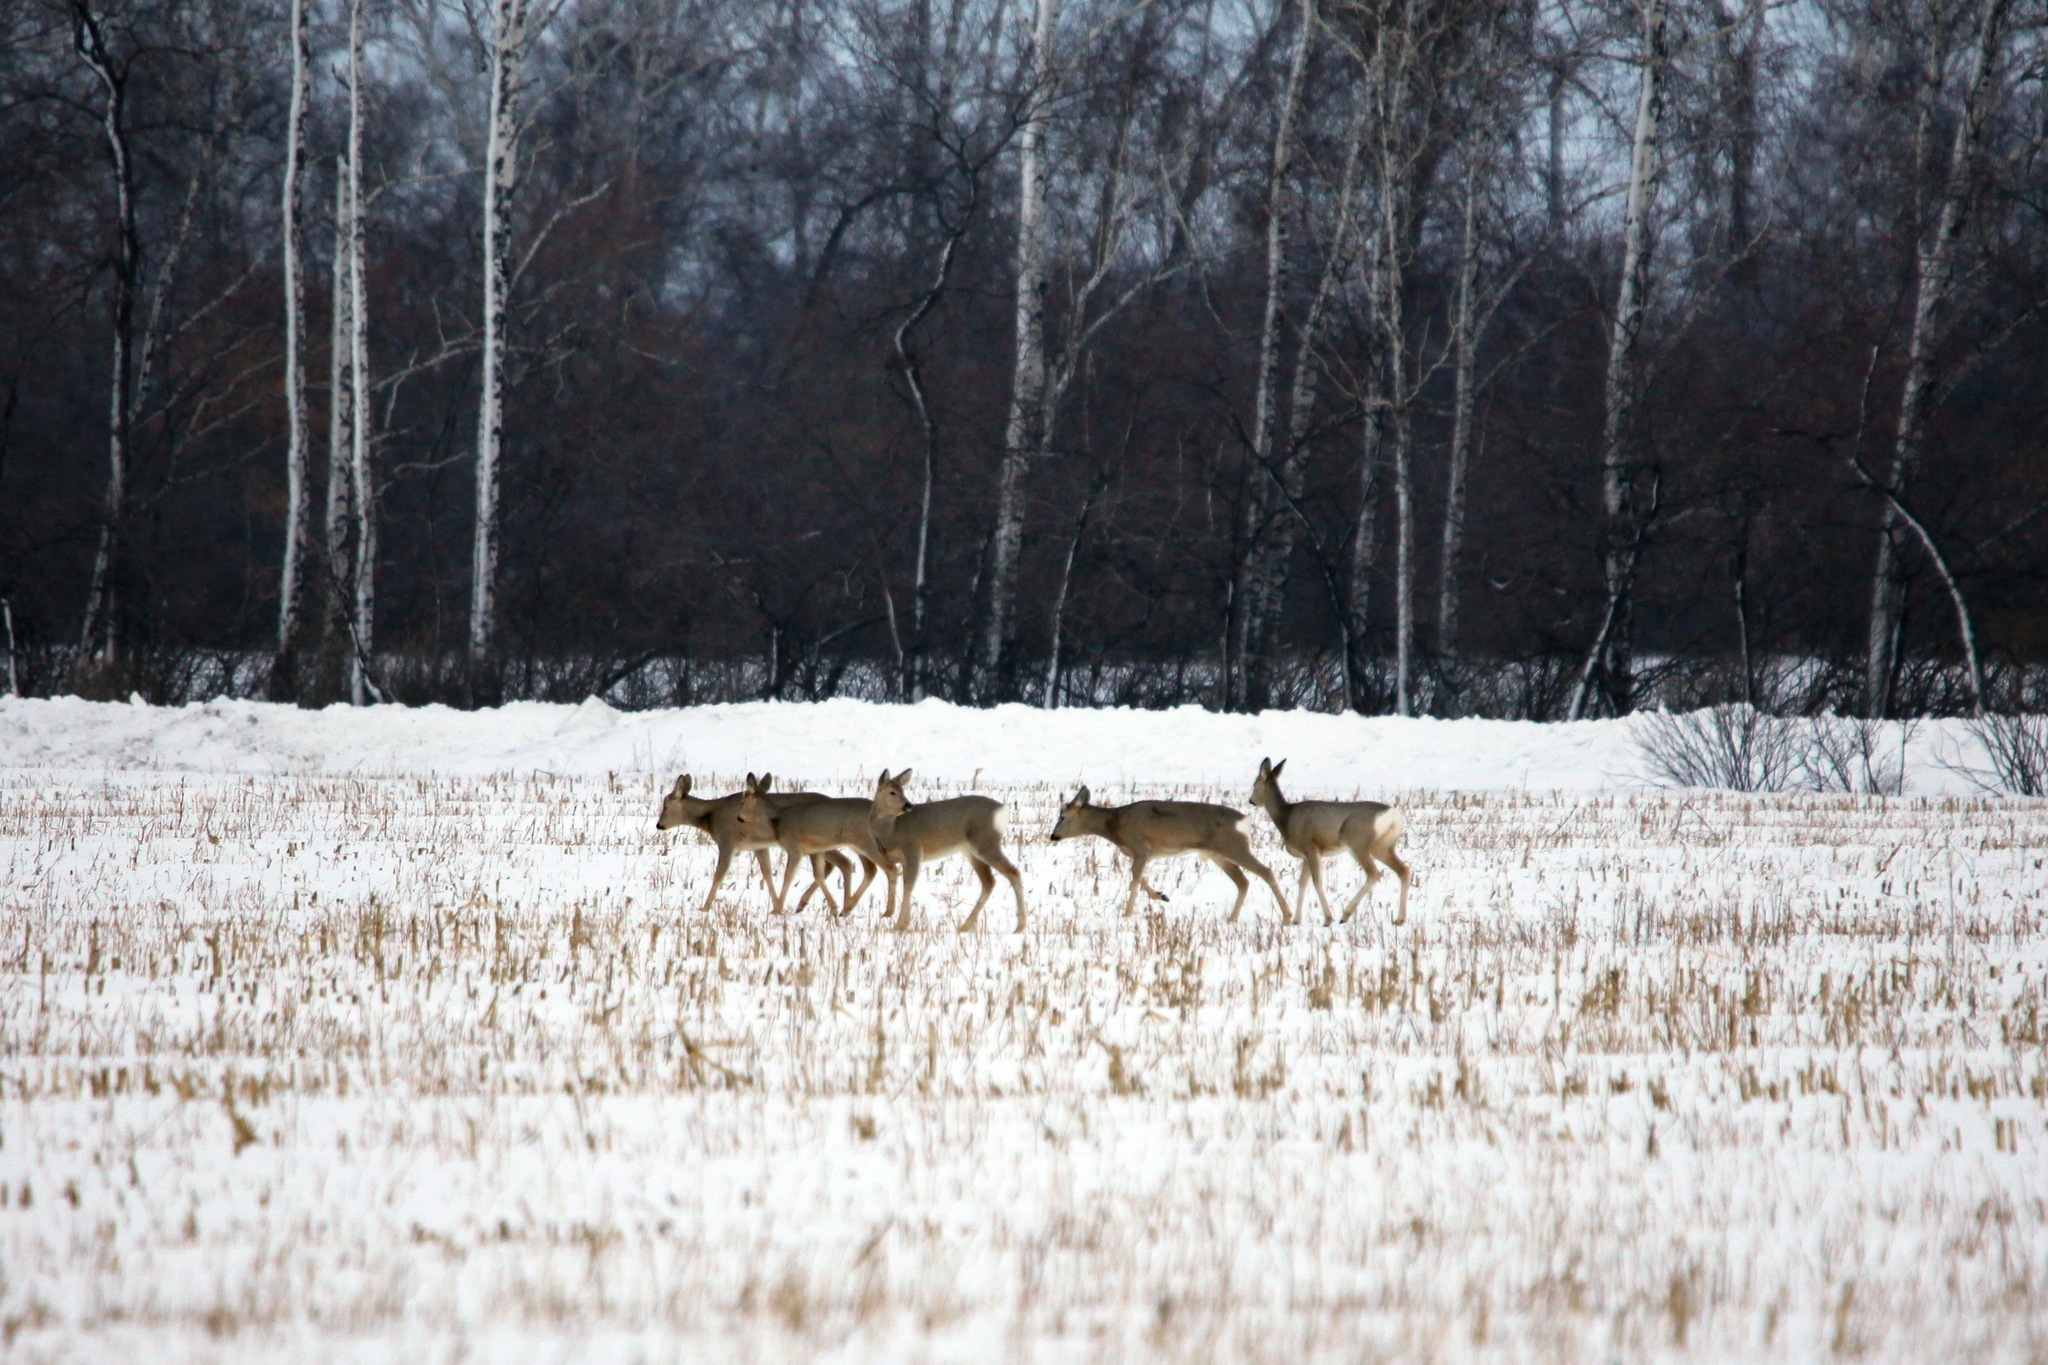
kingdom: Animalia
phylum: Chordata
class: Mammalia
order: Artiodactyla
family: Cervidae
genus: Capreolus
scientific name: Capreolus pygargus
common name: Siberian roe
